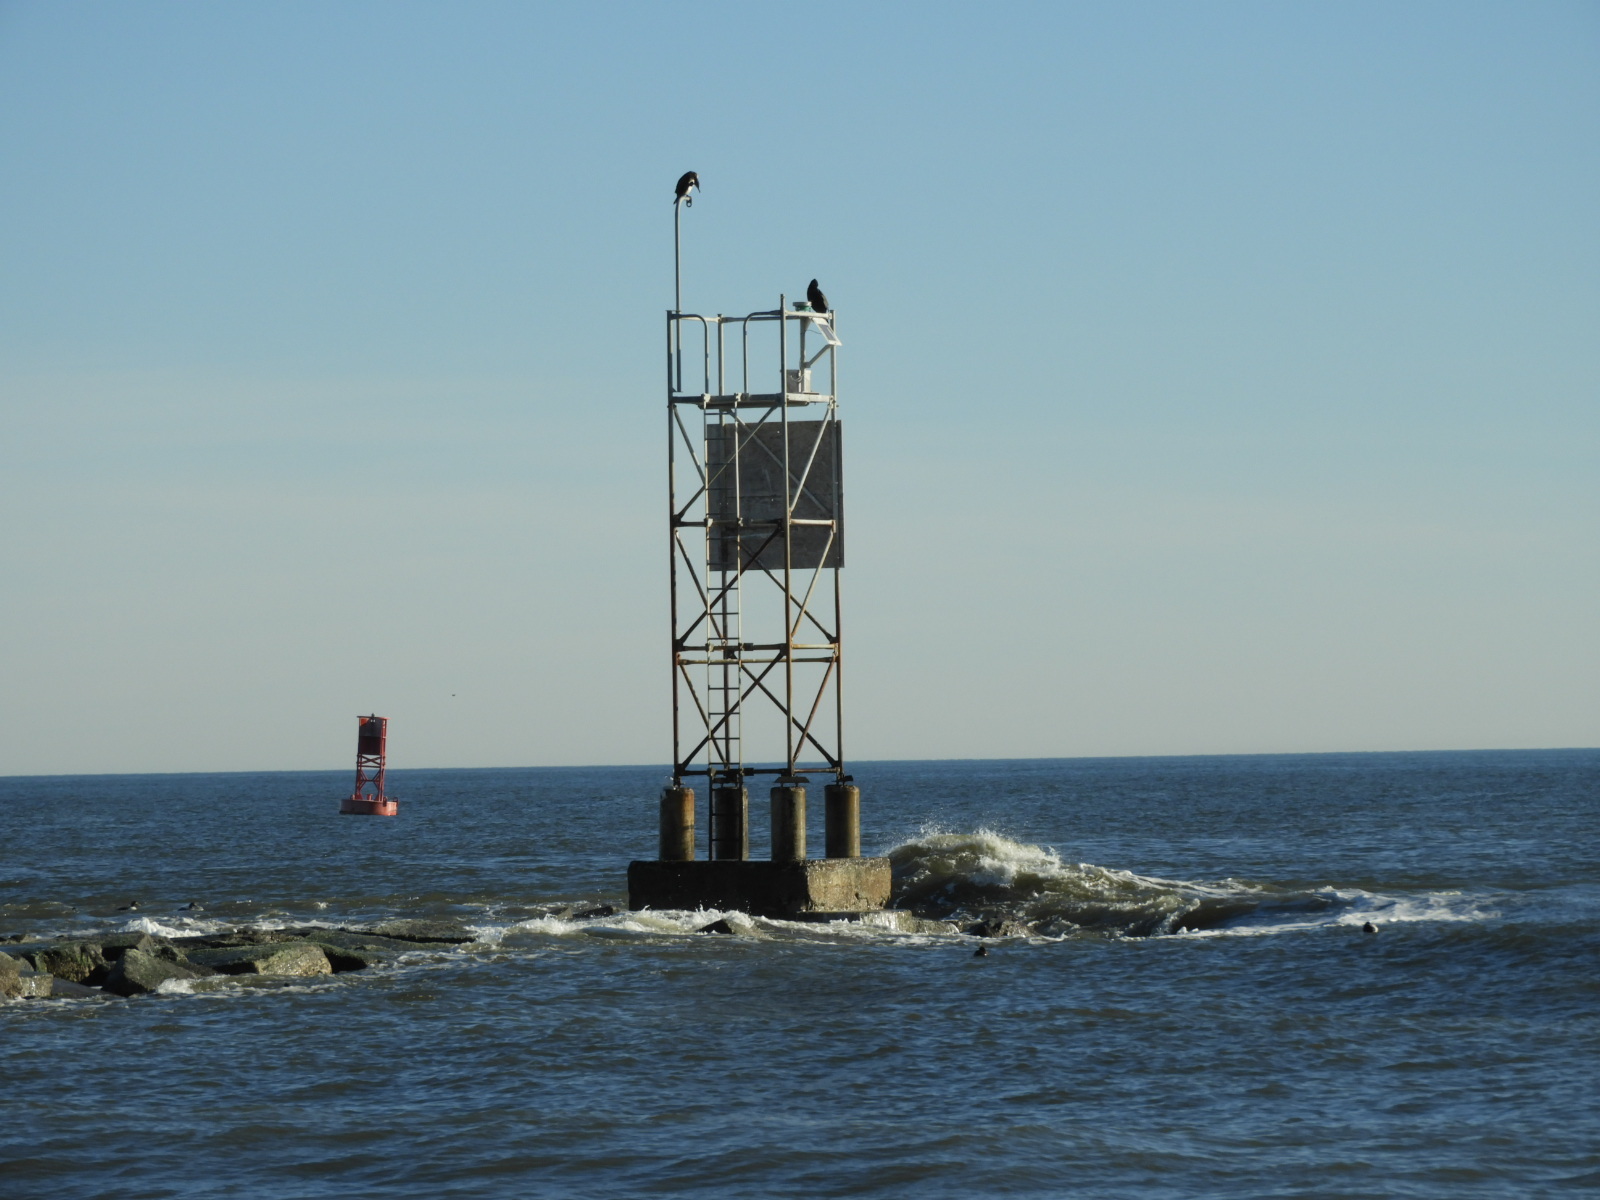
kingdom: Animalia
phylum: Chordata
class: Aves
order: Suliformes
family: Phalacrocoracidae
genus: Phalacrocorax
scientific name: Phalacrocorax carbo
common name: Great cormorant
